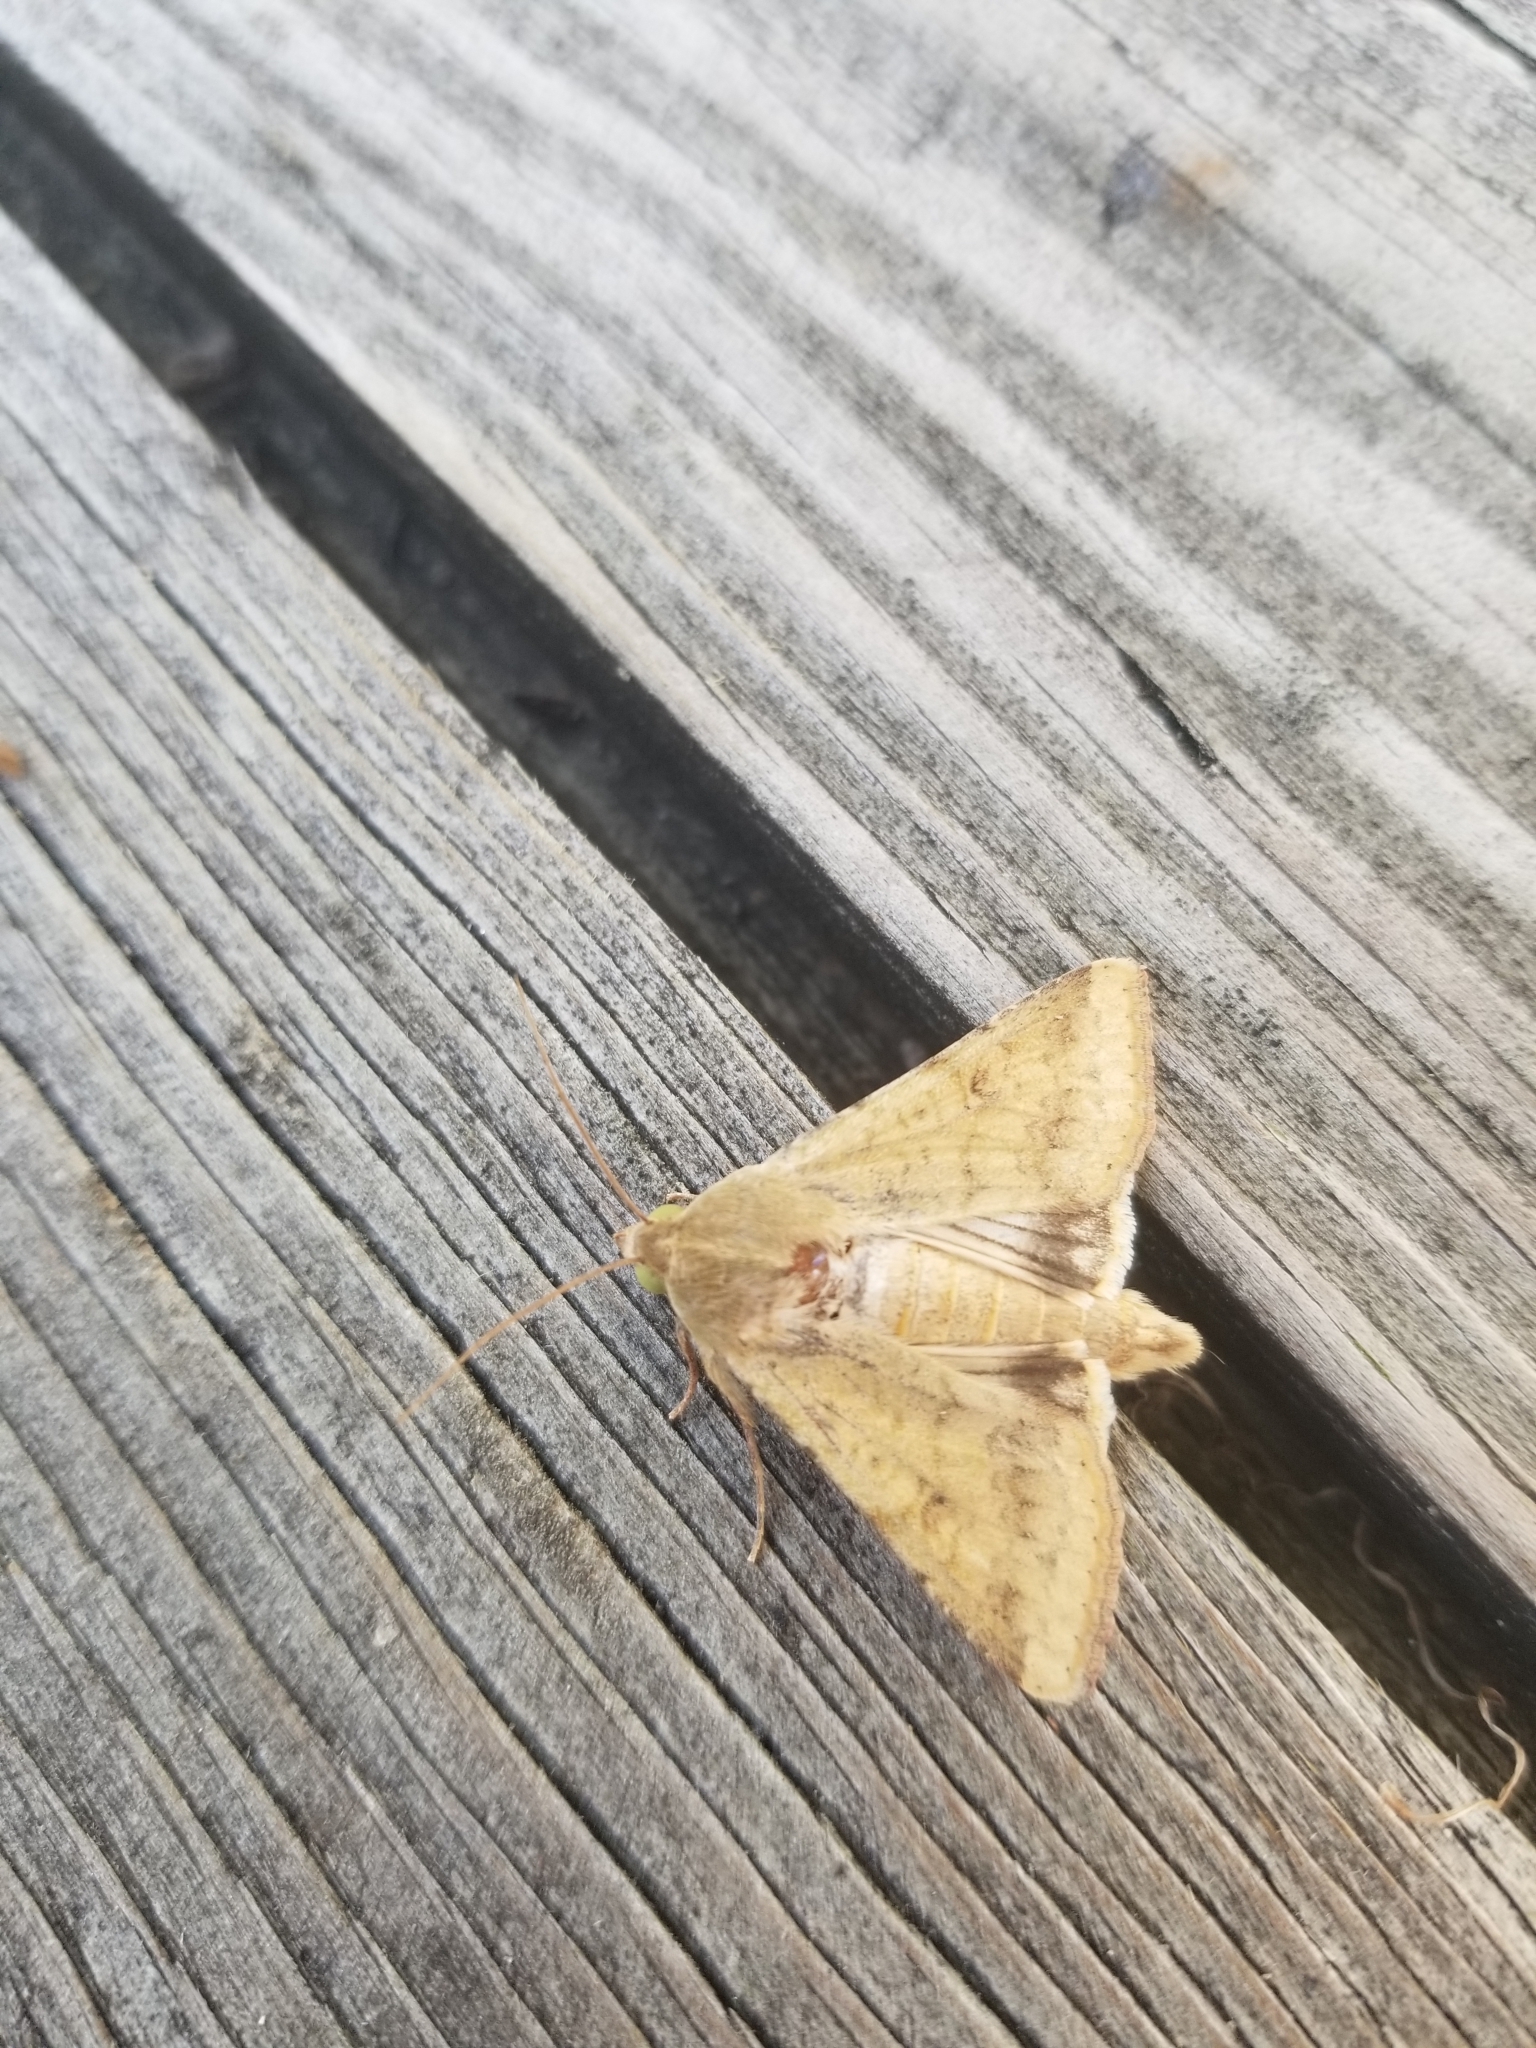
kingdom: Animalia
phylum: Arthropoda
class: Insecta
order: Lepidoptera
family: Noctuidae
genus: Helicoverpa
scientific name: Helicoverpa zea
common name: Bollworm
